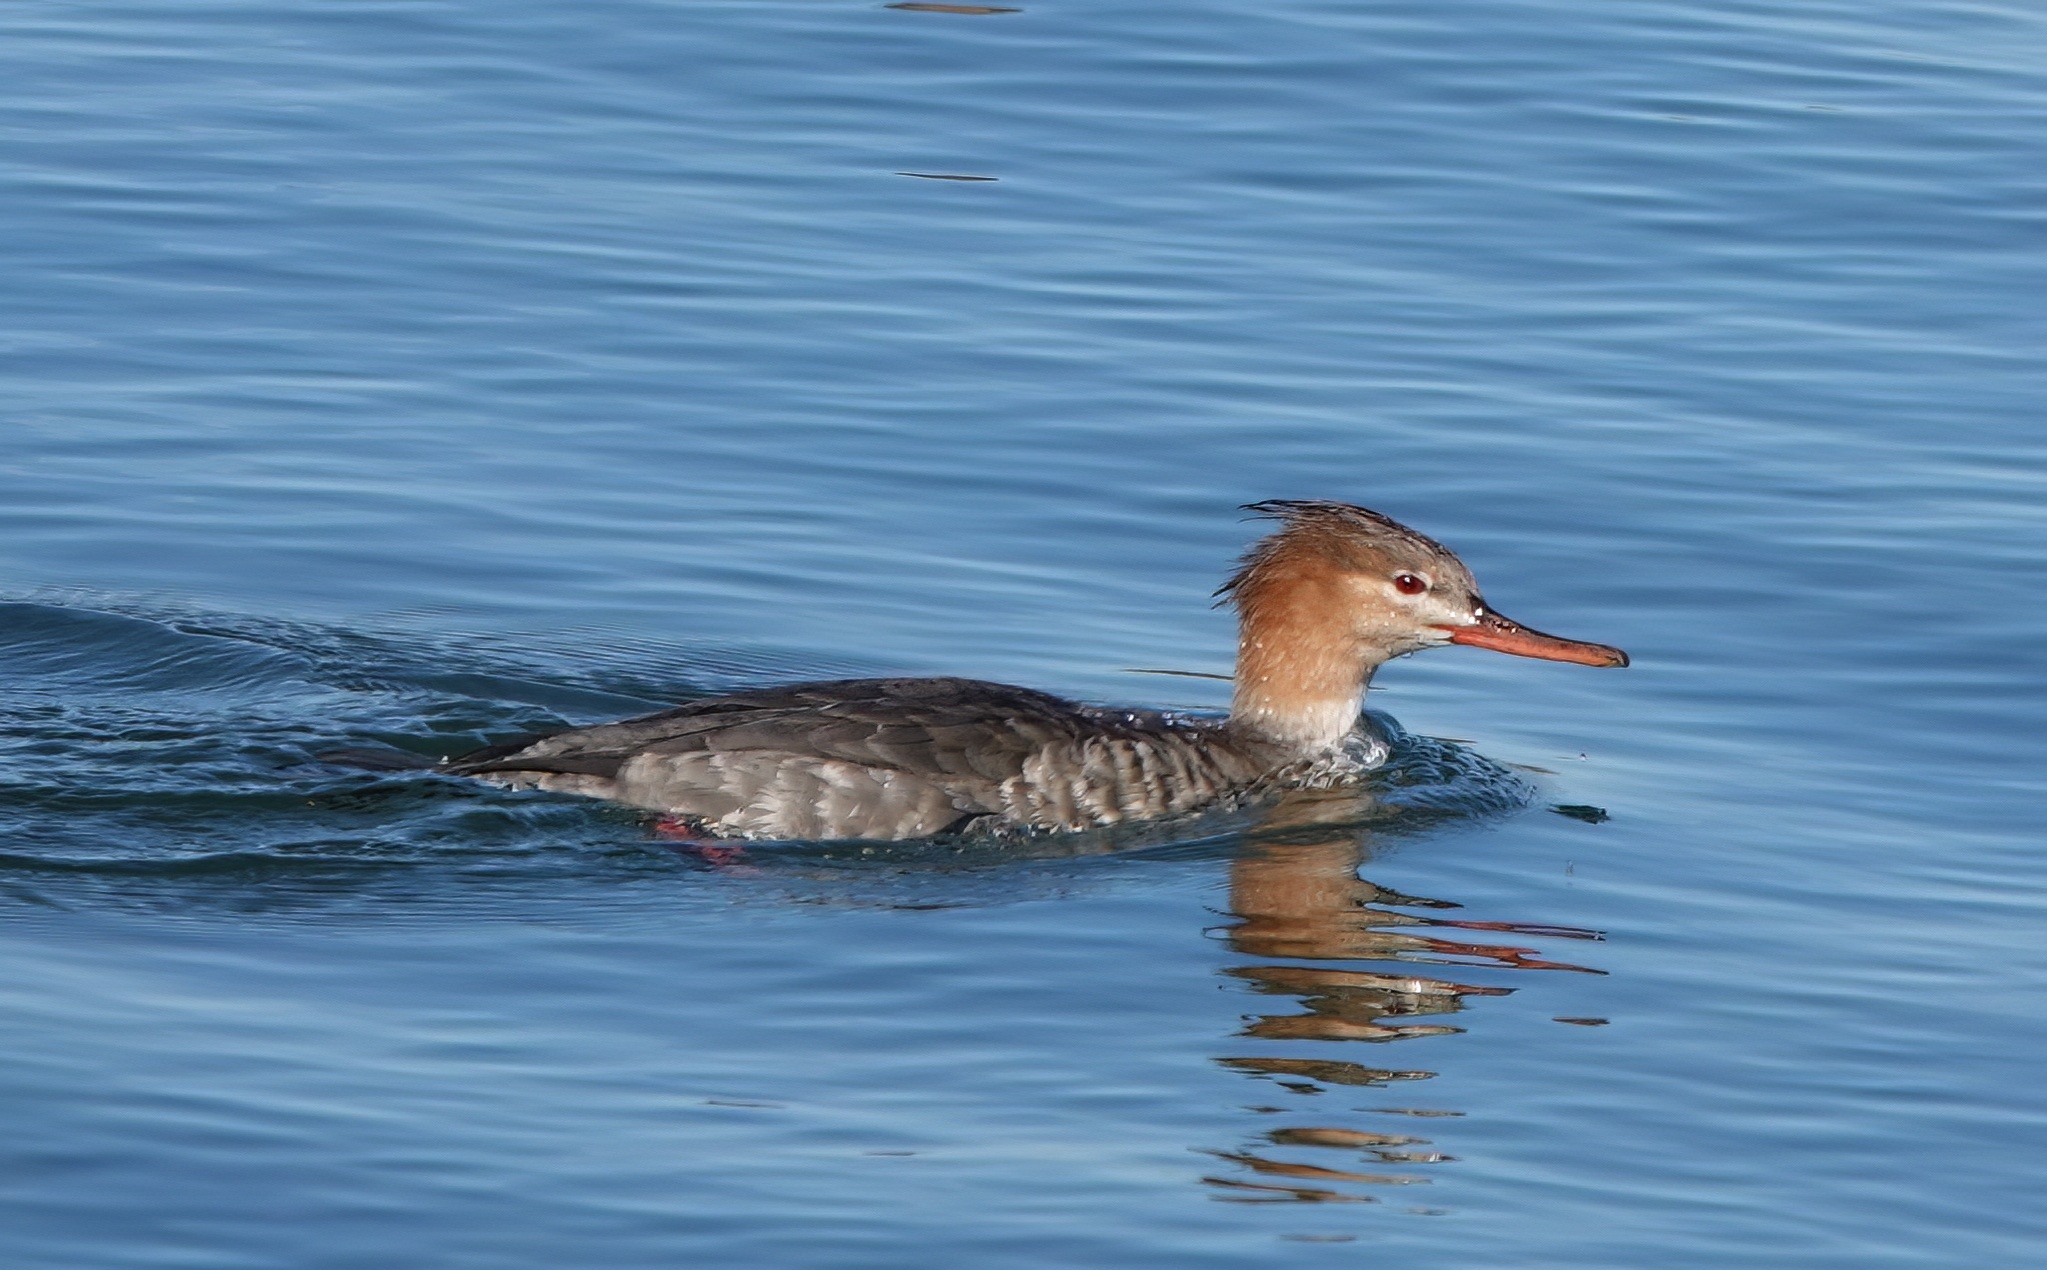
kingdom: Animalia
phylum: Chordata
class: Aves
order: Anseriformes
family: Anatidae
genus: Mergus
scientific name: Mergus serrator
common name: Red-breasted merganser
